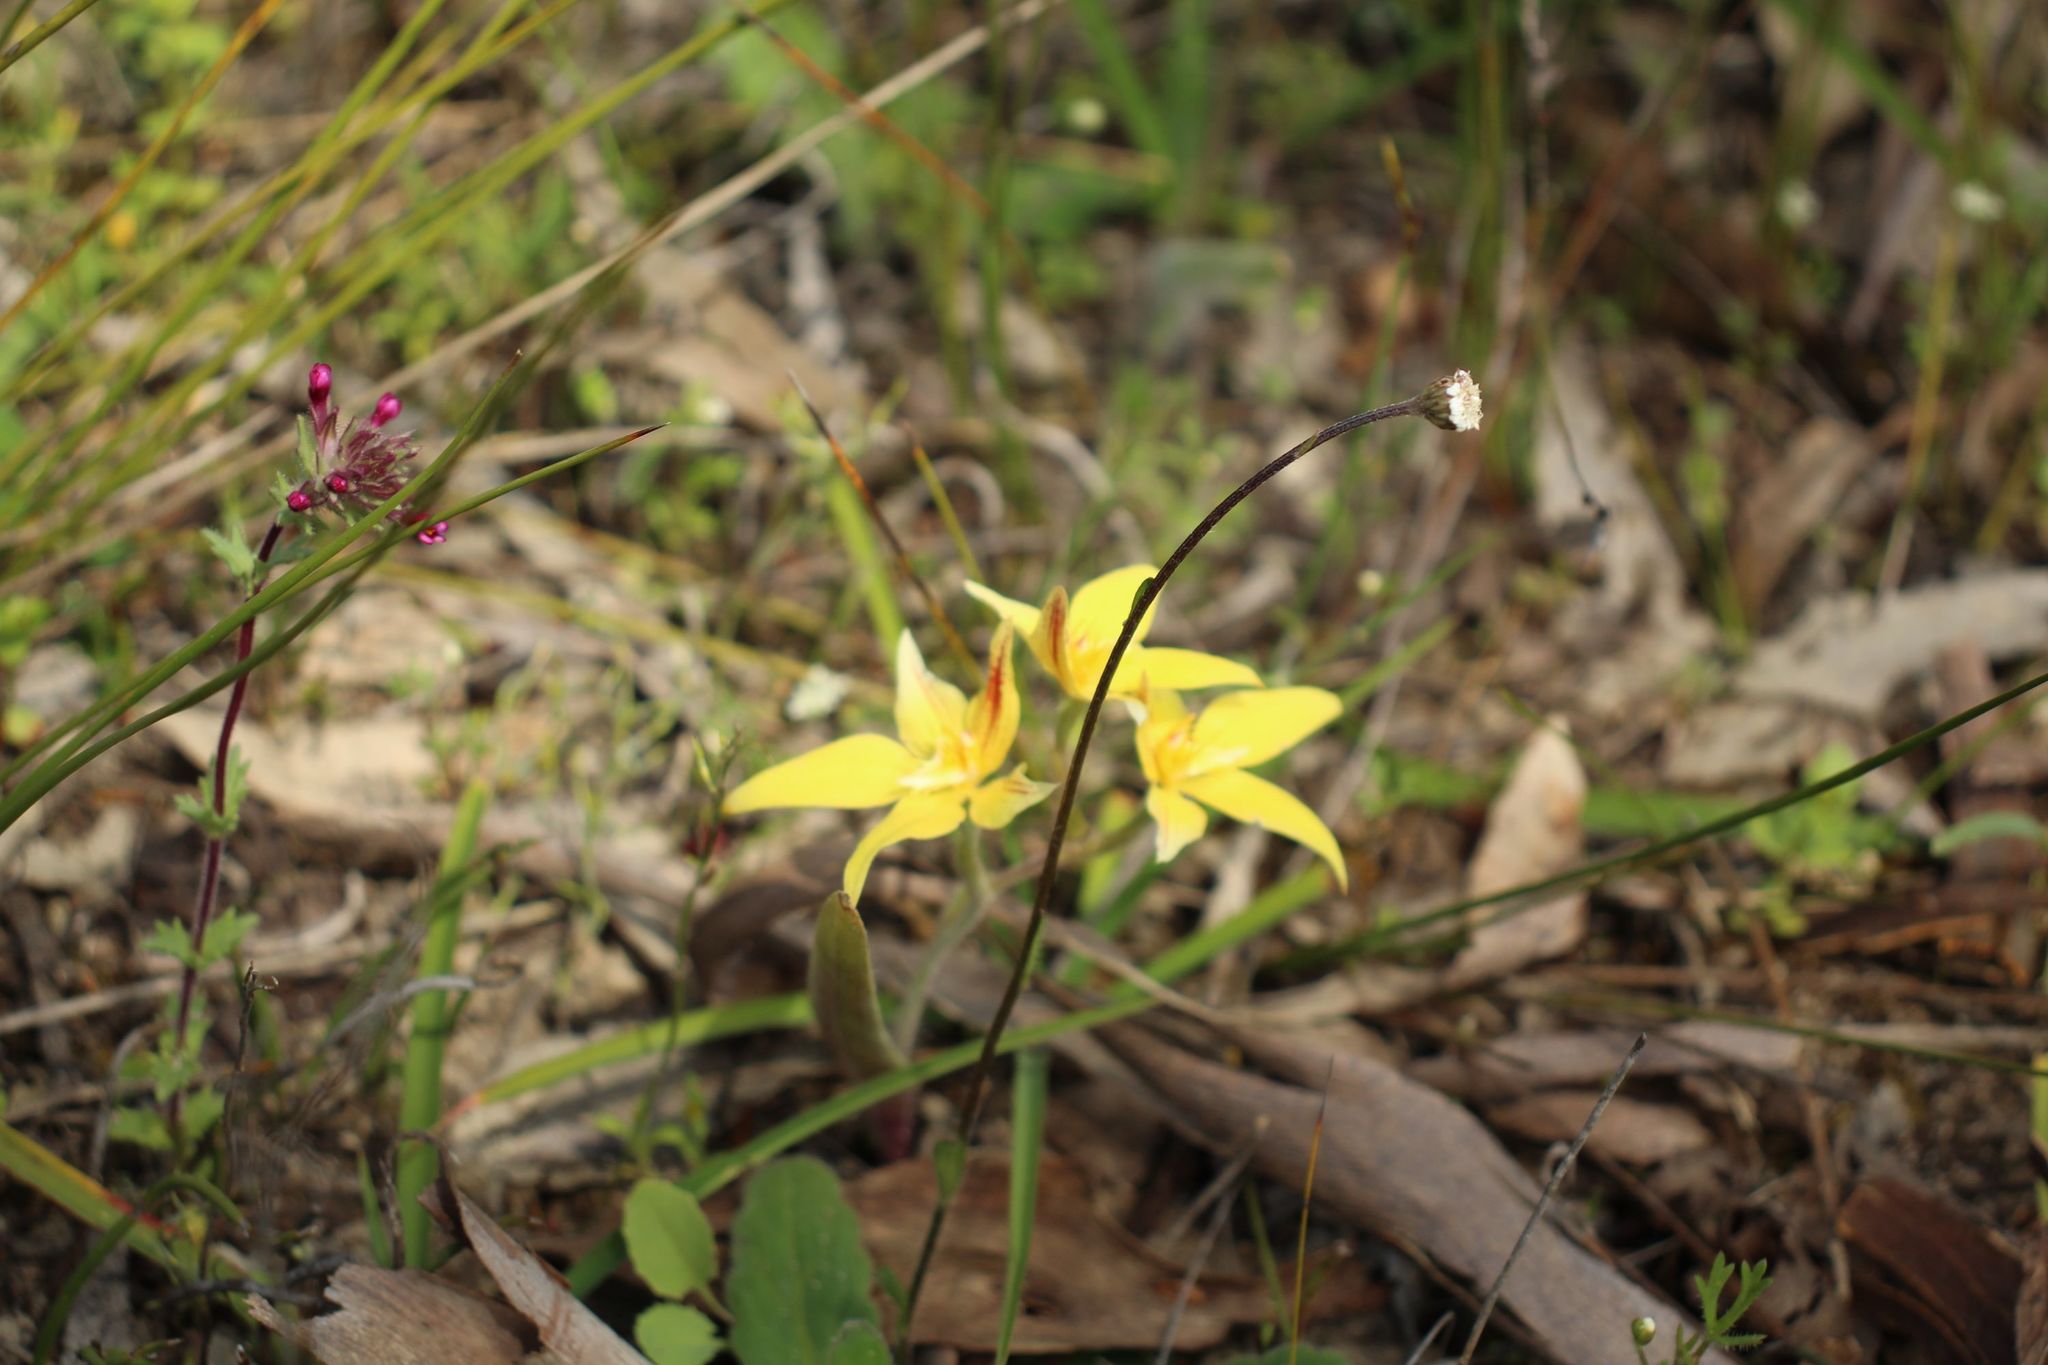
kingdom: Plantae
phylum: Tracheophyta
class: Liliopsida
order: Asparagales
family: Orchidaceae
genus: Caladenia
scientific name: Caladenia flava
